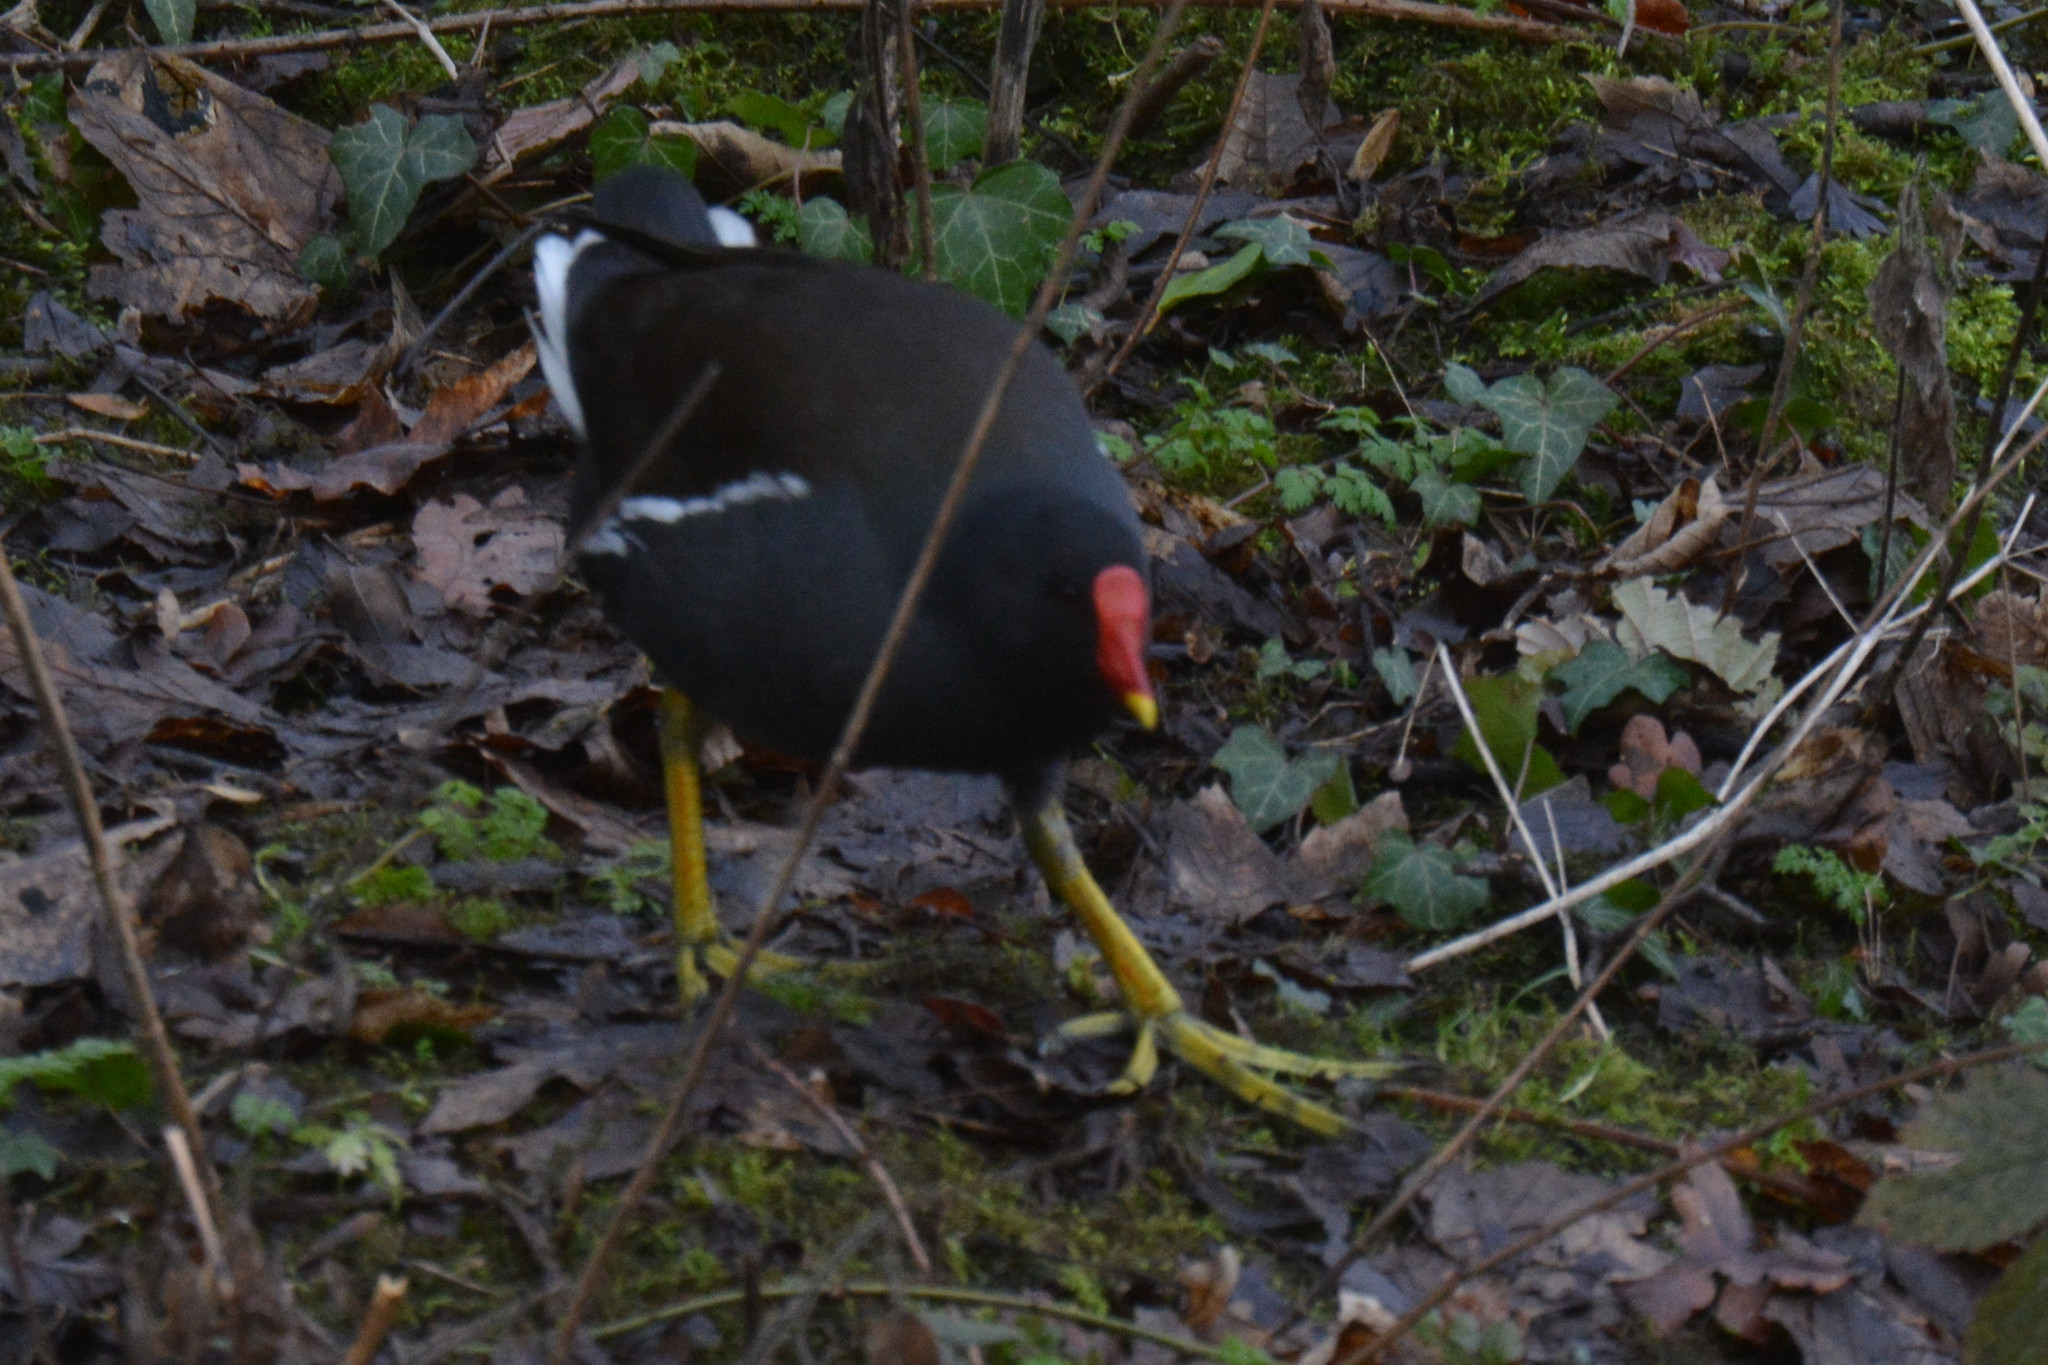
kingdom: Animalia
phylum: Chordata
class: Aves
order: Gruiformes
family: Rallidae
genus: Gallinula
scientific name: Gallinula chloropus
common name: Common moorhen
